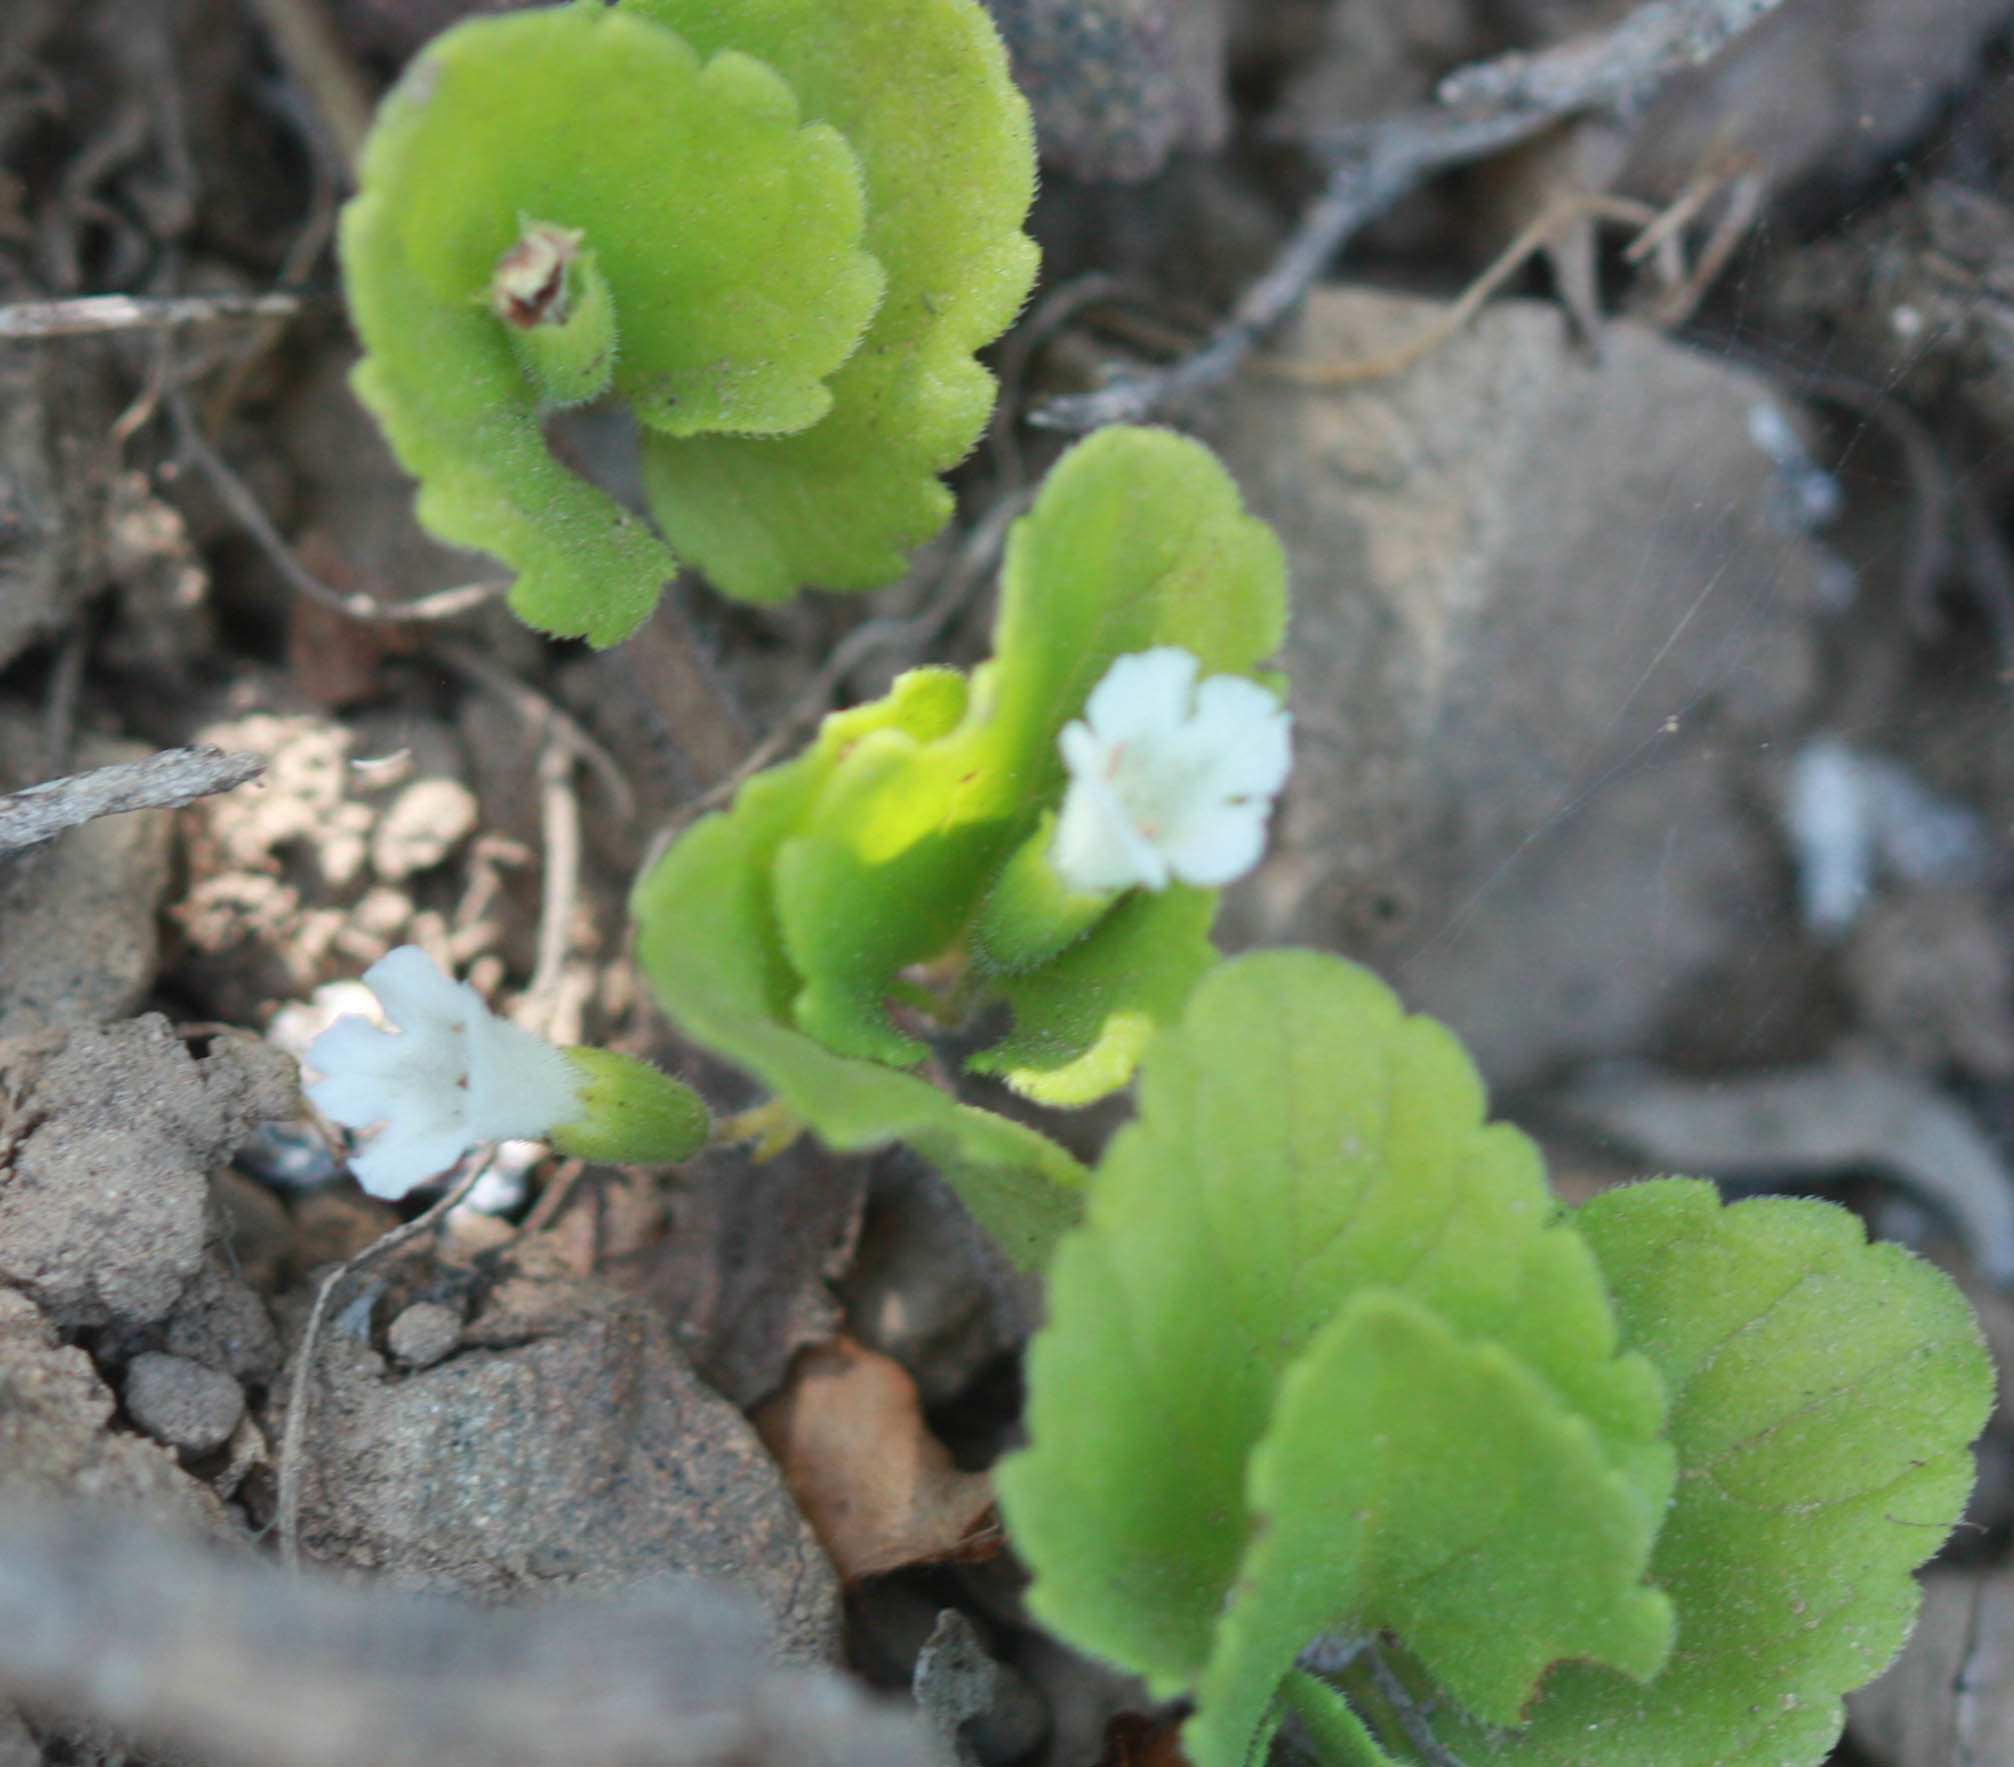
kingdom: Plantae
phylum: Tracheophyta
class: Magnoliopsida
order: Lamiales
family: Lamiaceae
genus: Micromeria
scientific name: Micromeria douglasii
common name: Yerba buena
